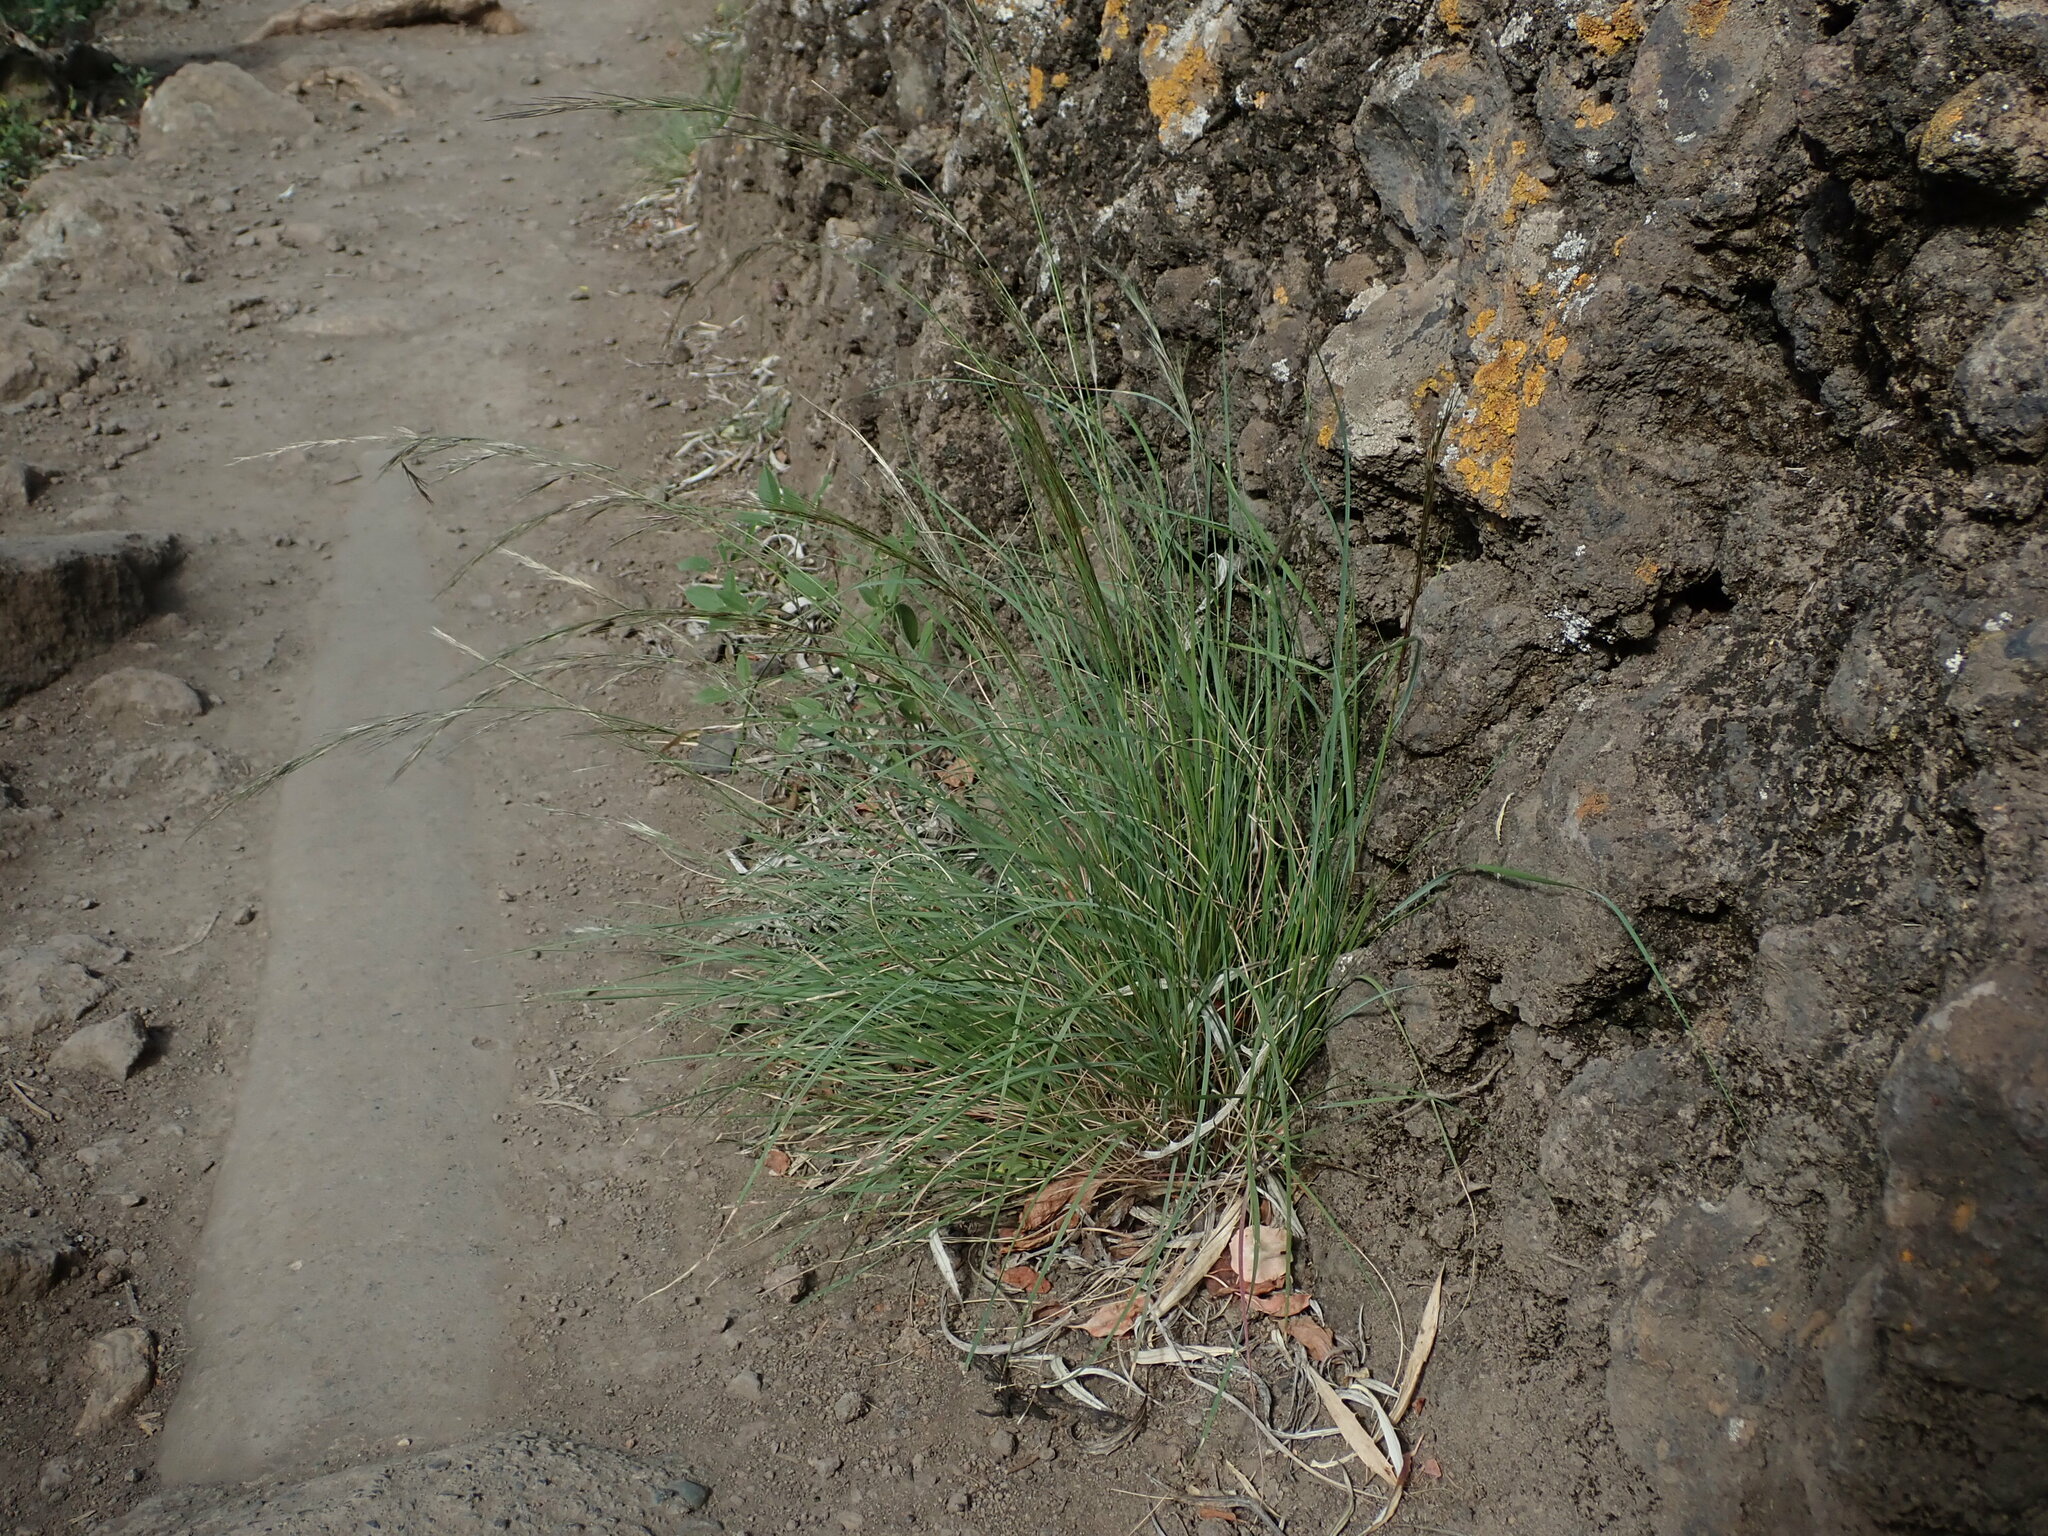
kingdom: Plantae
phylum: Tracheophyta
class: Liliopsida
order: Poales
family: Poaceae
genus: Aristida
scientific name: Aristida adscensionis
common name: Sixweeks threeawn
